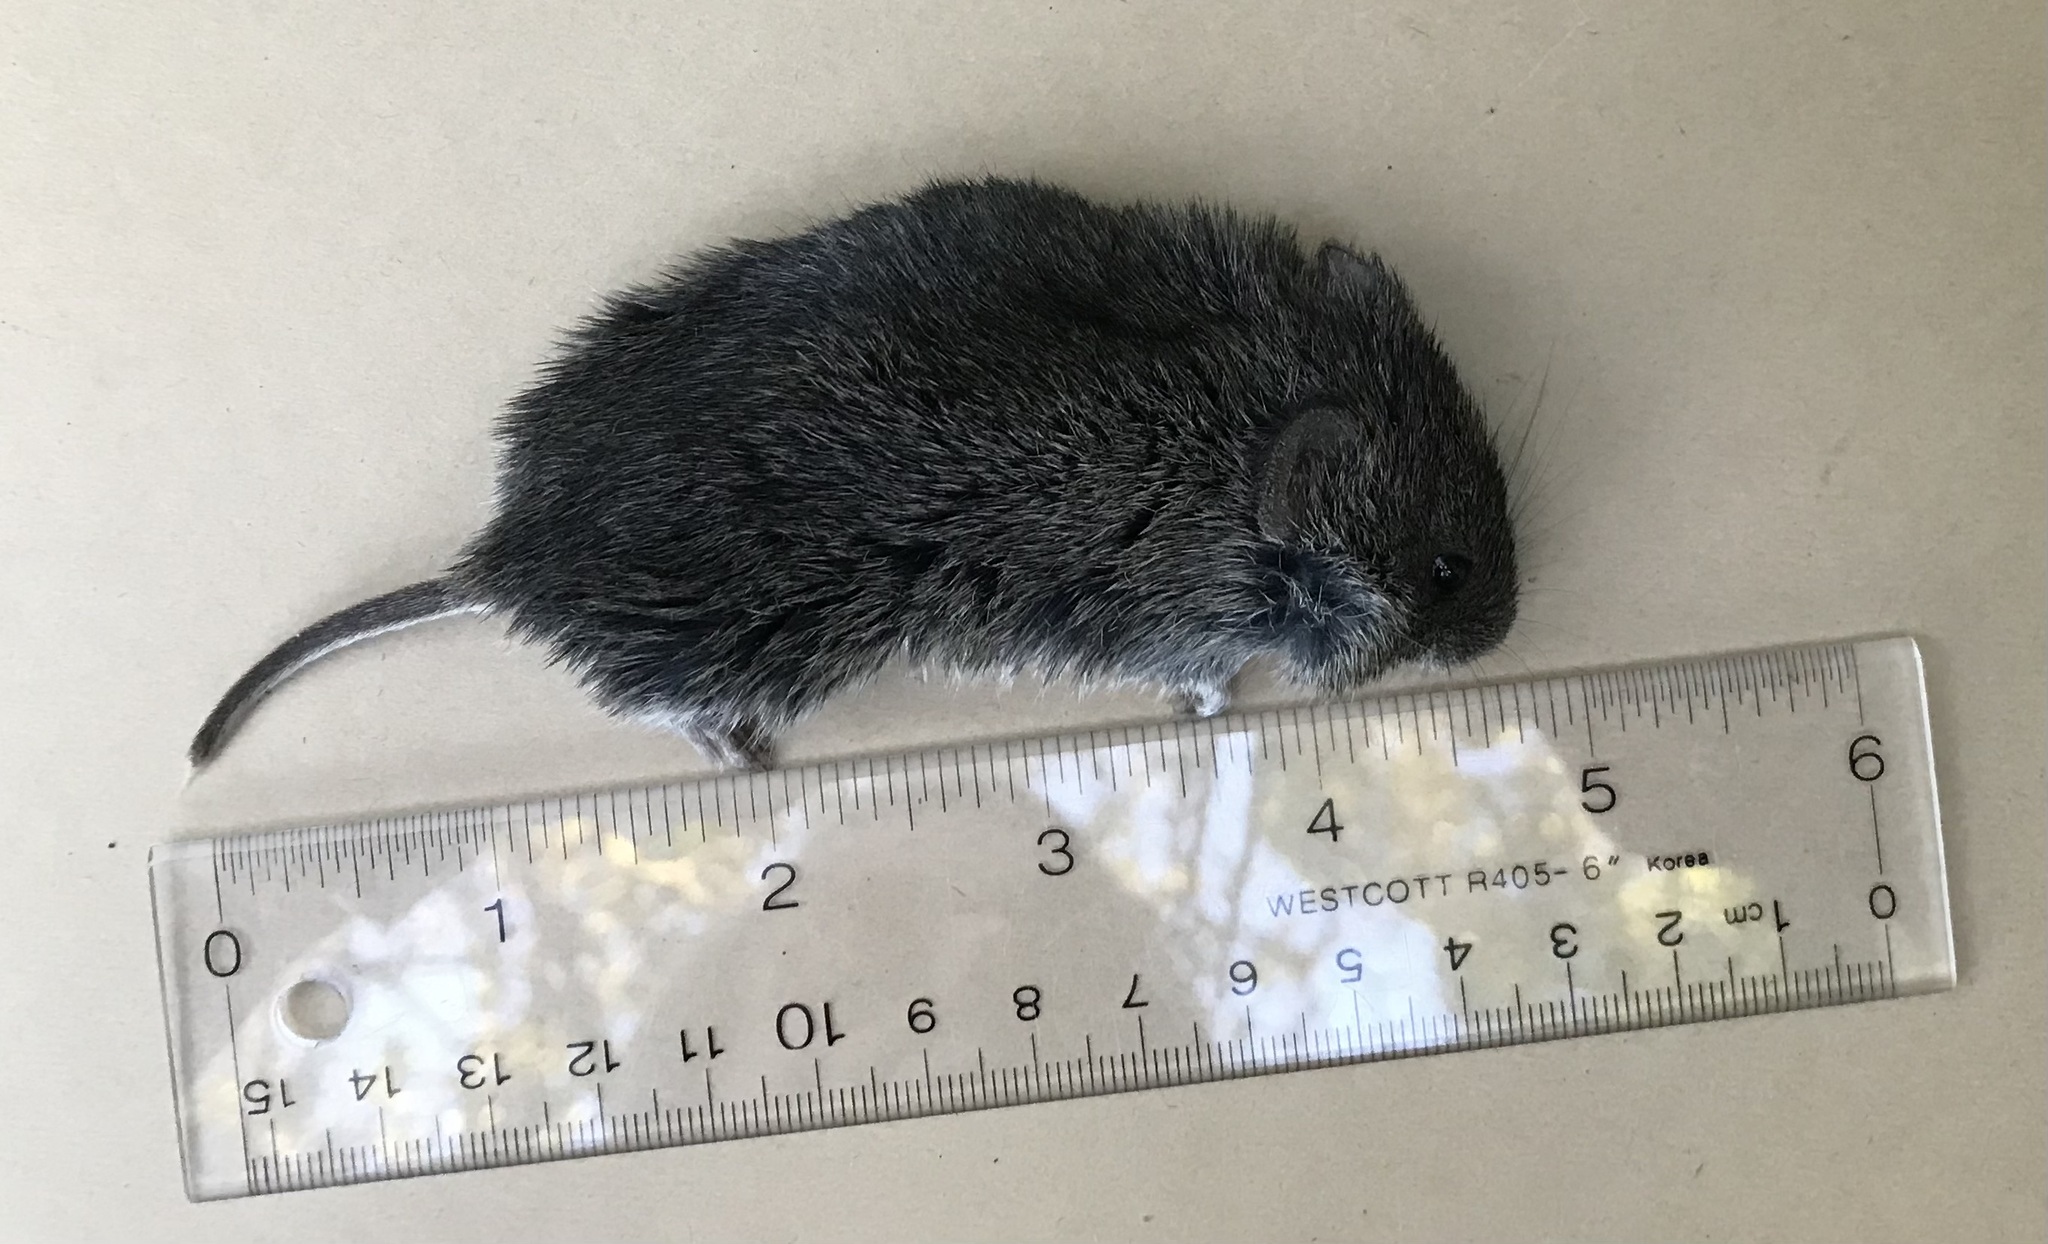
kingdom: Animalia
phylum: Chordata
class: Mammalia
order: Rodentia
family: Cricetidae
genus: Microtus
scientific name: Microtus californicus
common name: California vole
